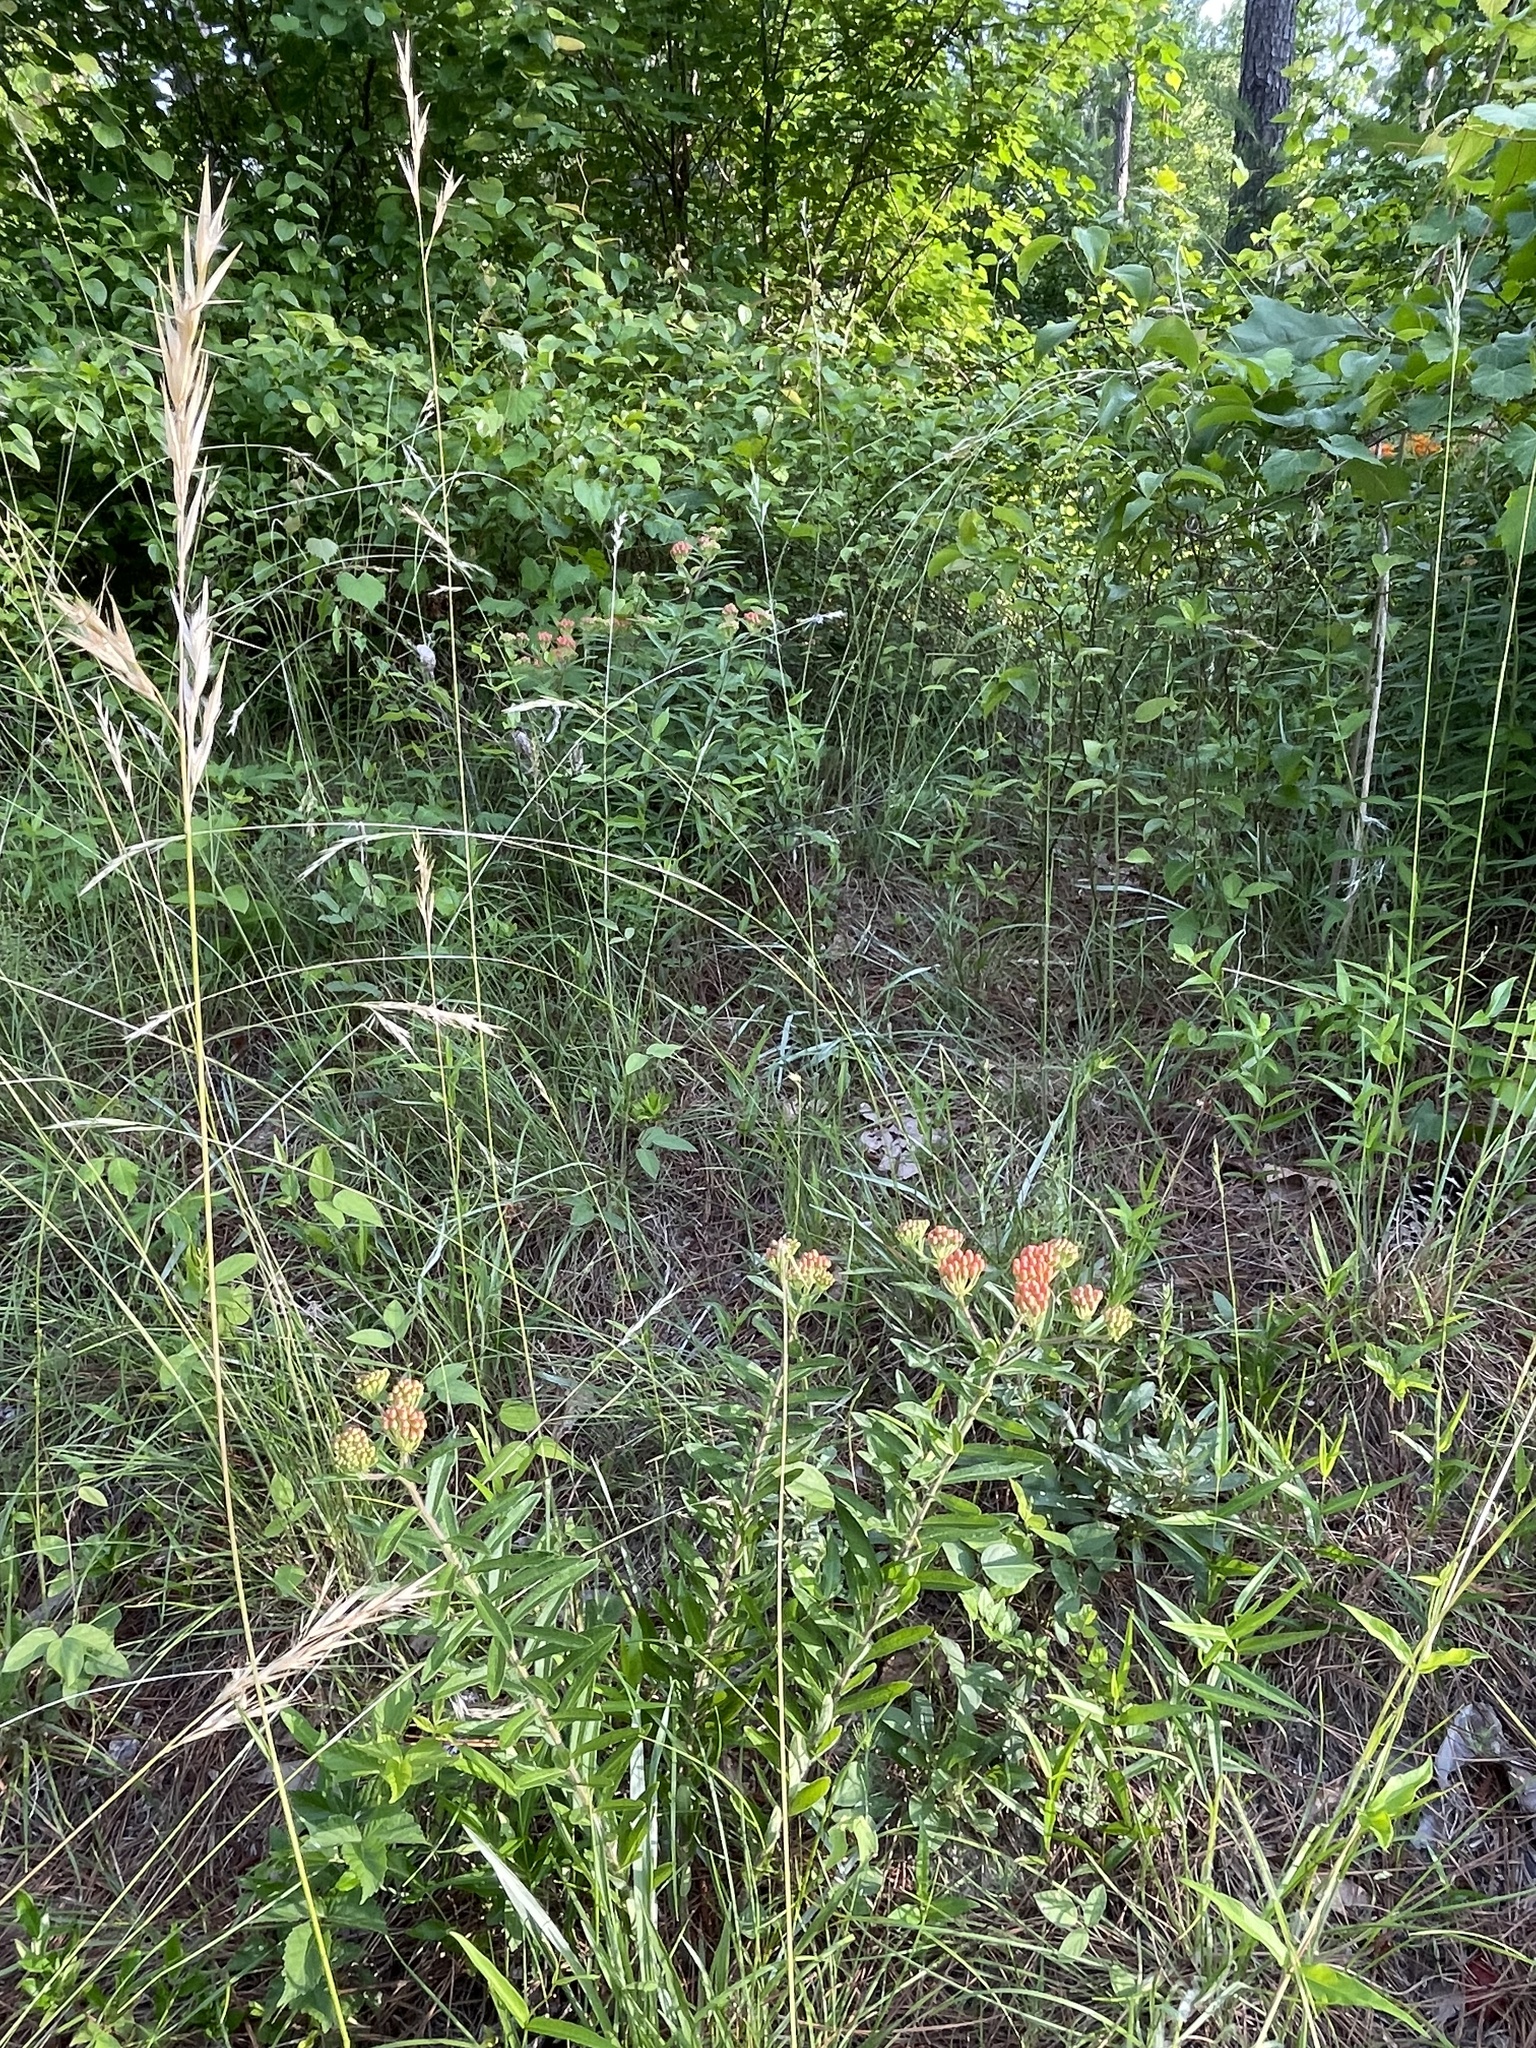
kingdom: Plantae
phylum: Tracheophyta
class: Magnoliopsida
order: Gentianales
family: Apocynaceae
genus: Asclepias
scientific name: Asclepias tuberosa
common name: Butterfly milkweed
